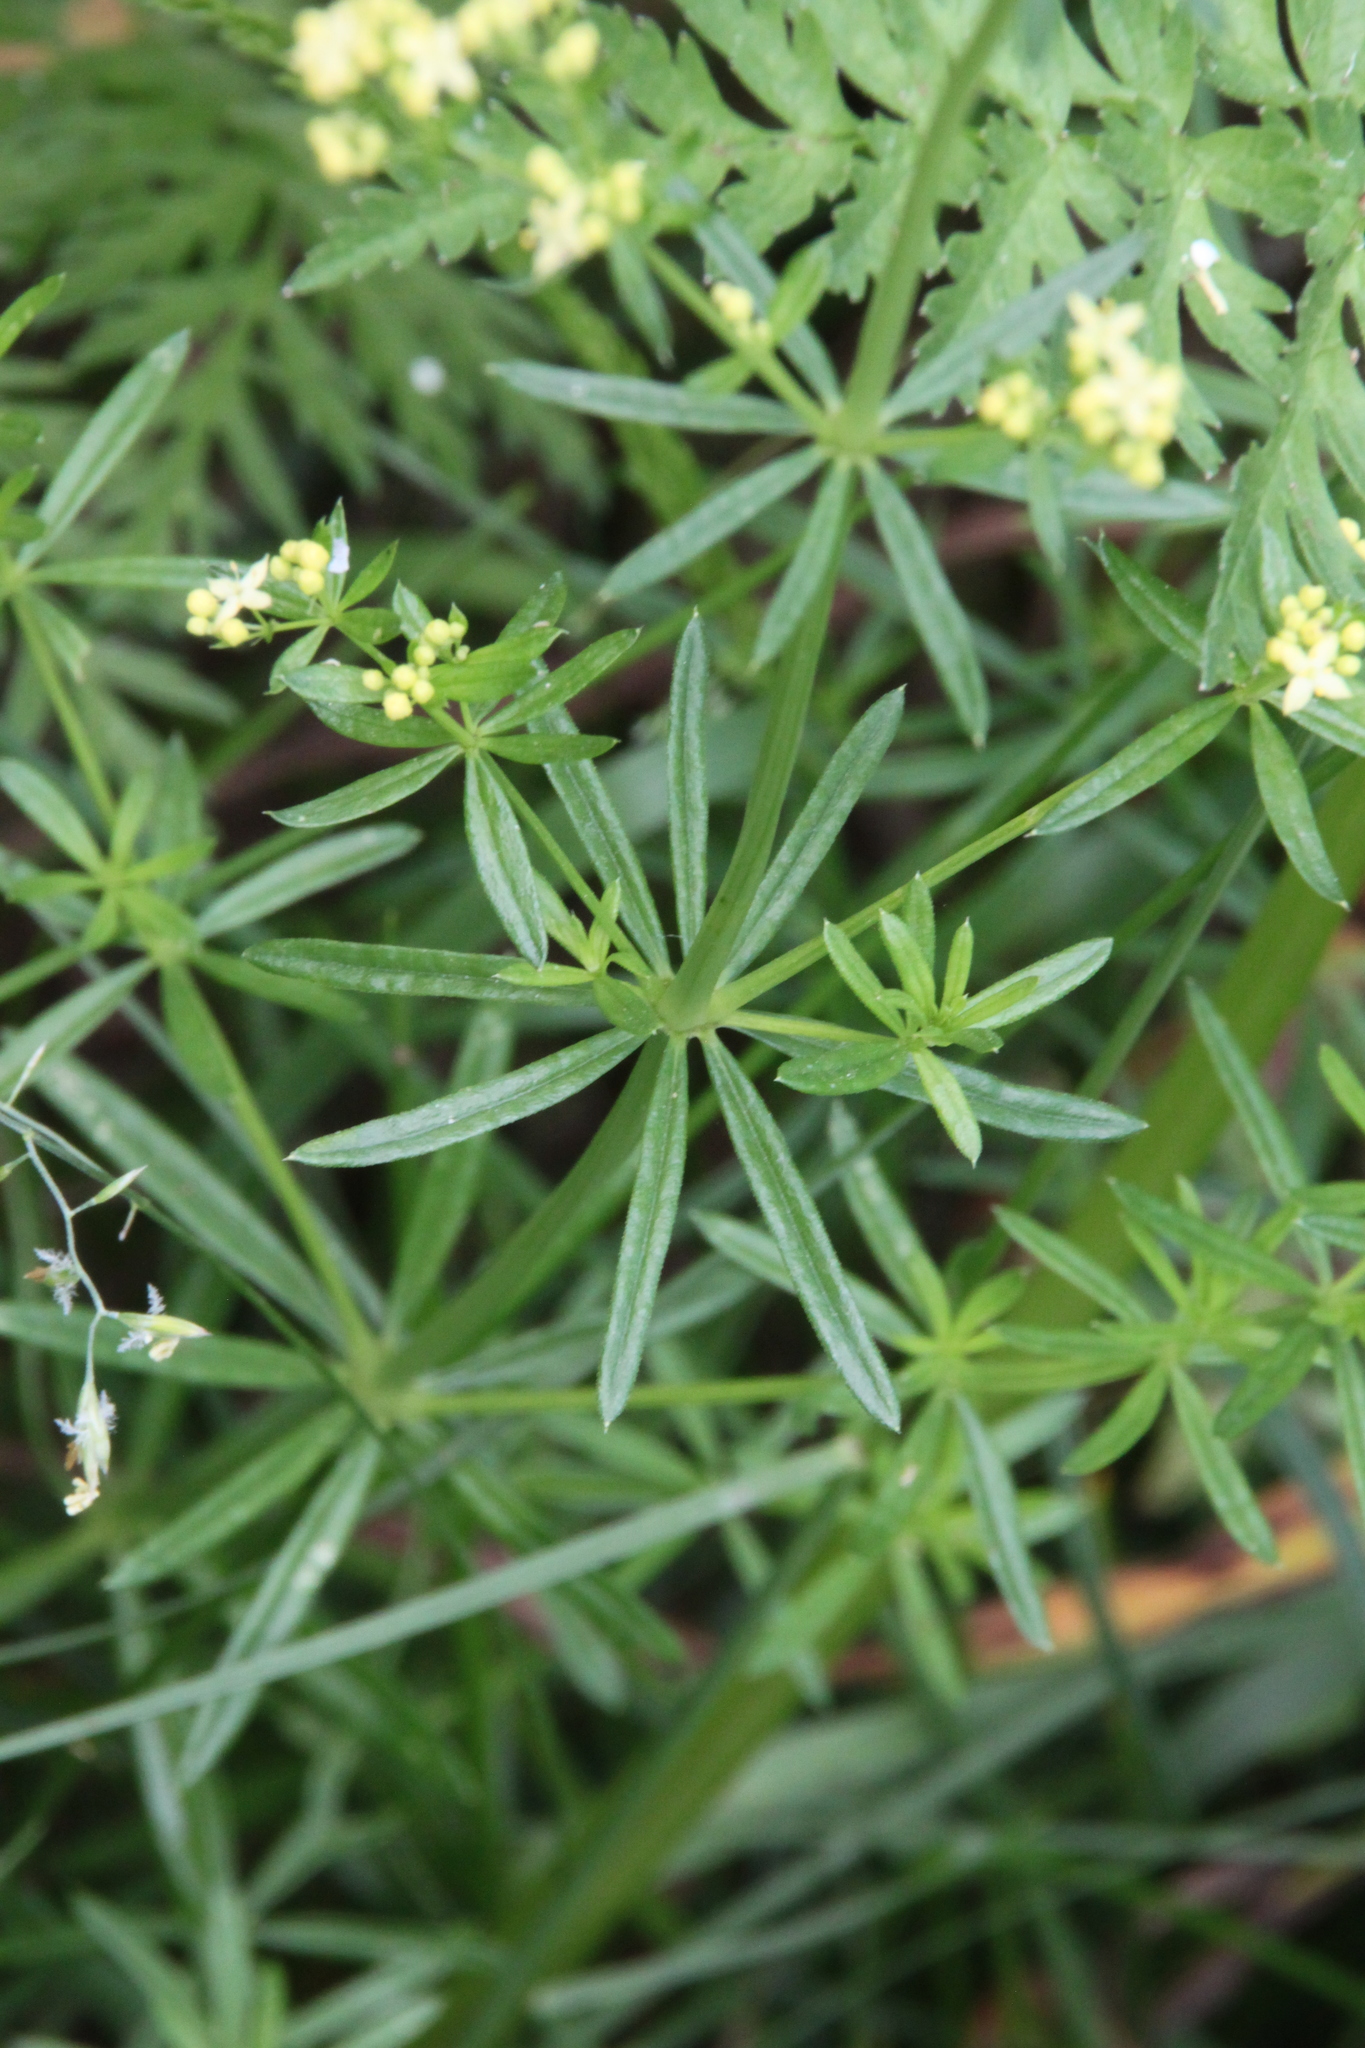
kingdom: Plantae
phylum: Tracheophyta
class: Magnoliopsida
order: Gentianales
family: Rubiaceae
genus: Galium
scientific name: Galium mollugo
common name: Hedge bedstraw
